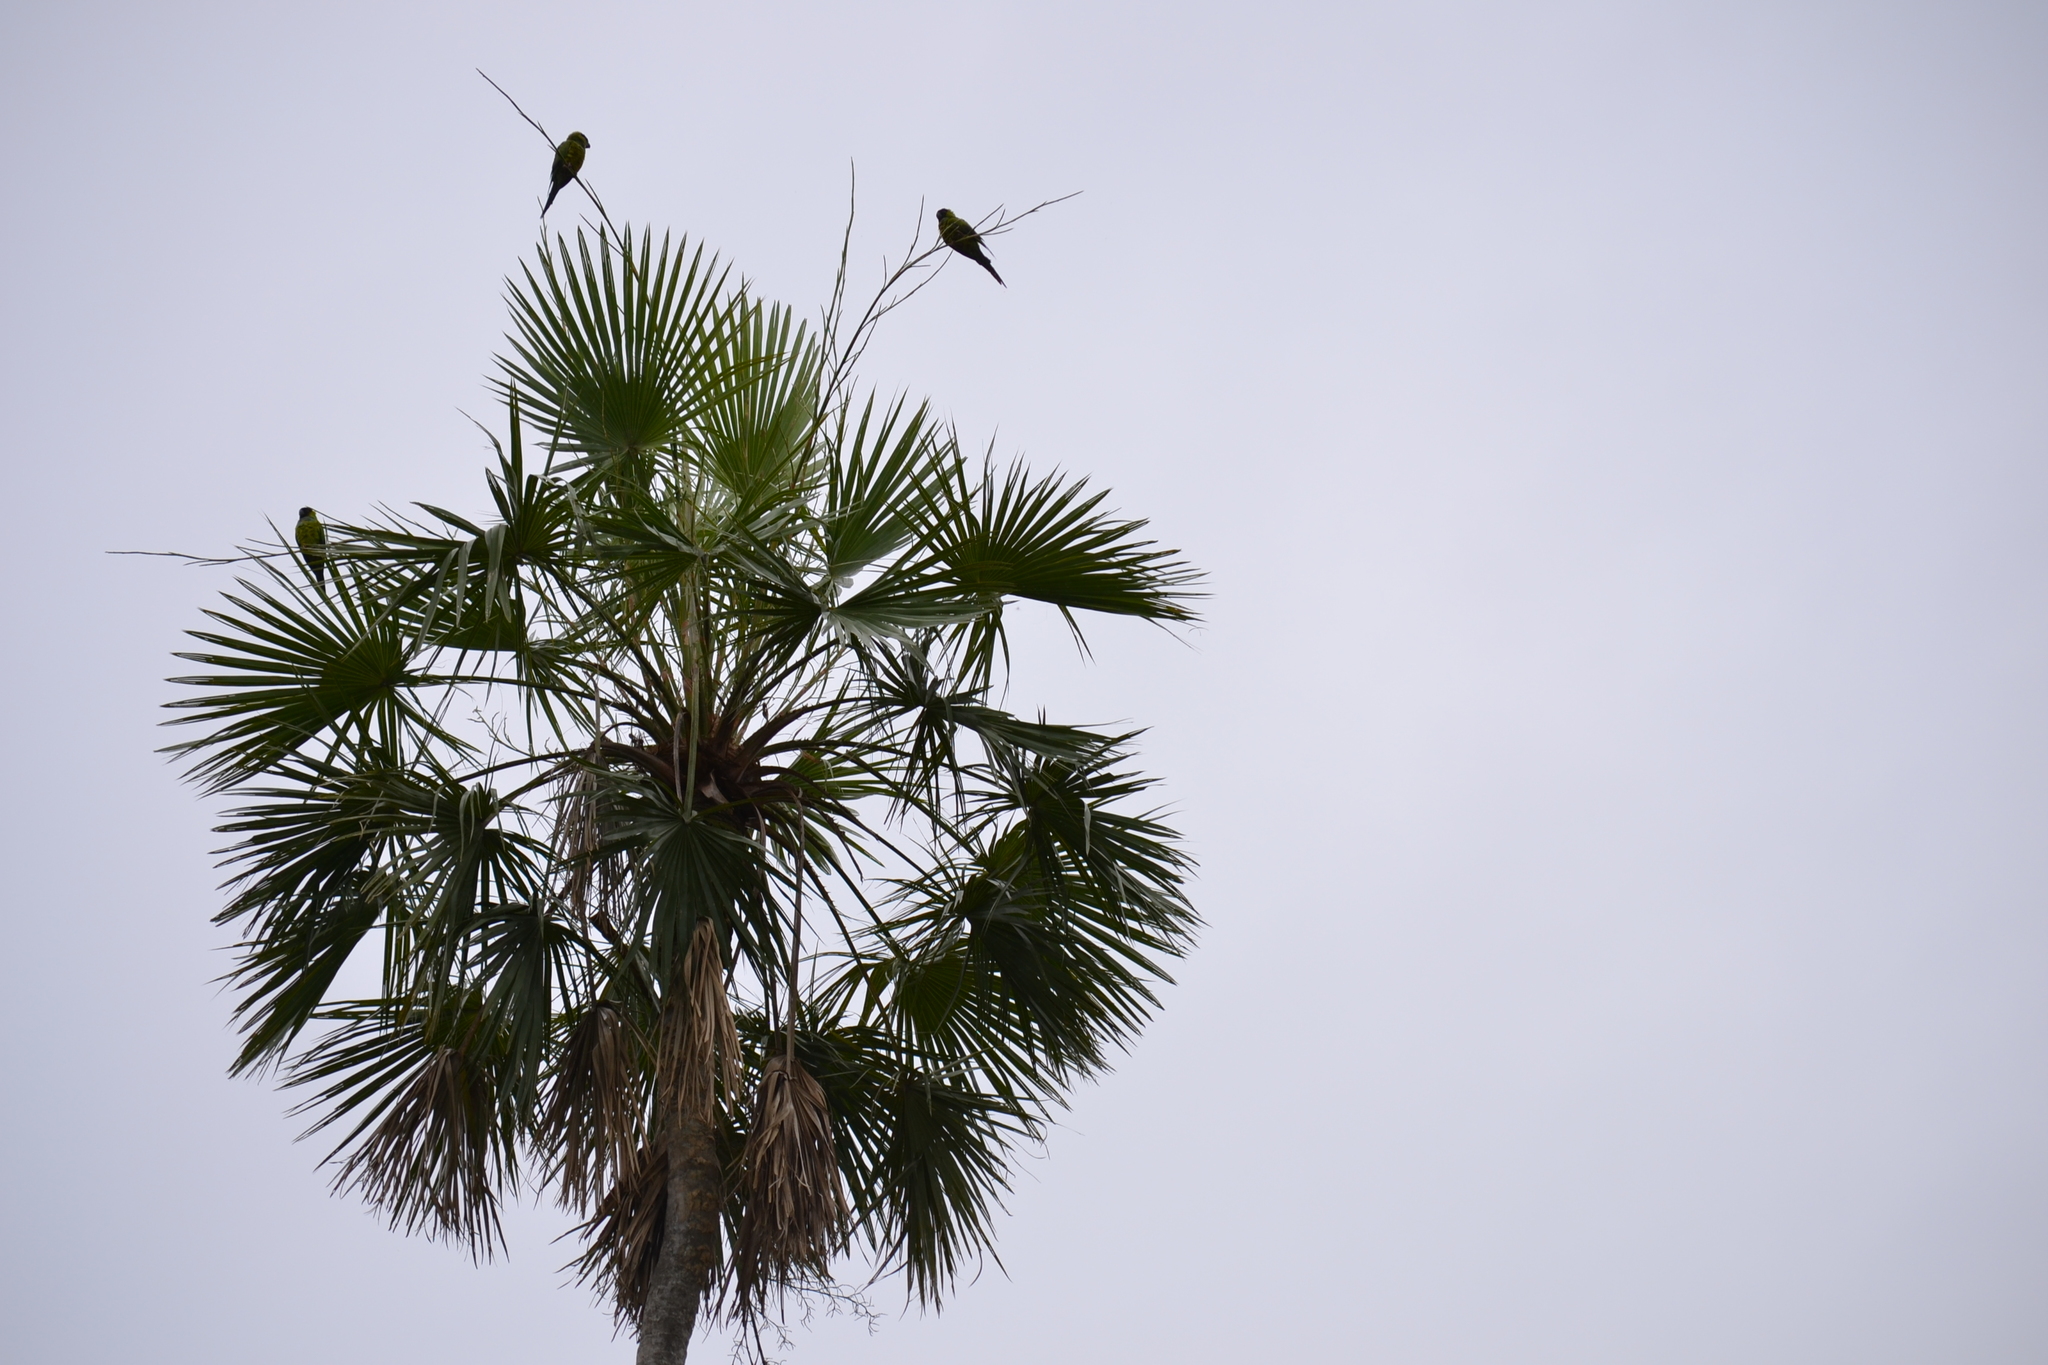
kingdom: Animalia
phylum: Chordata
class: Aves
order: Psittaciformes
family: Psittacidae
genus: Nandayus
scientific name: Nandayus nenday
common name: Nanday parakeet
